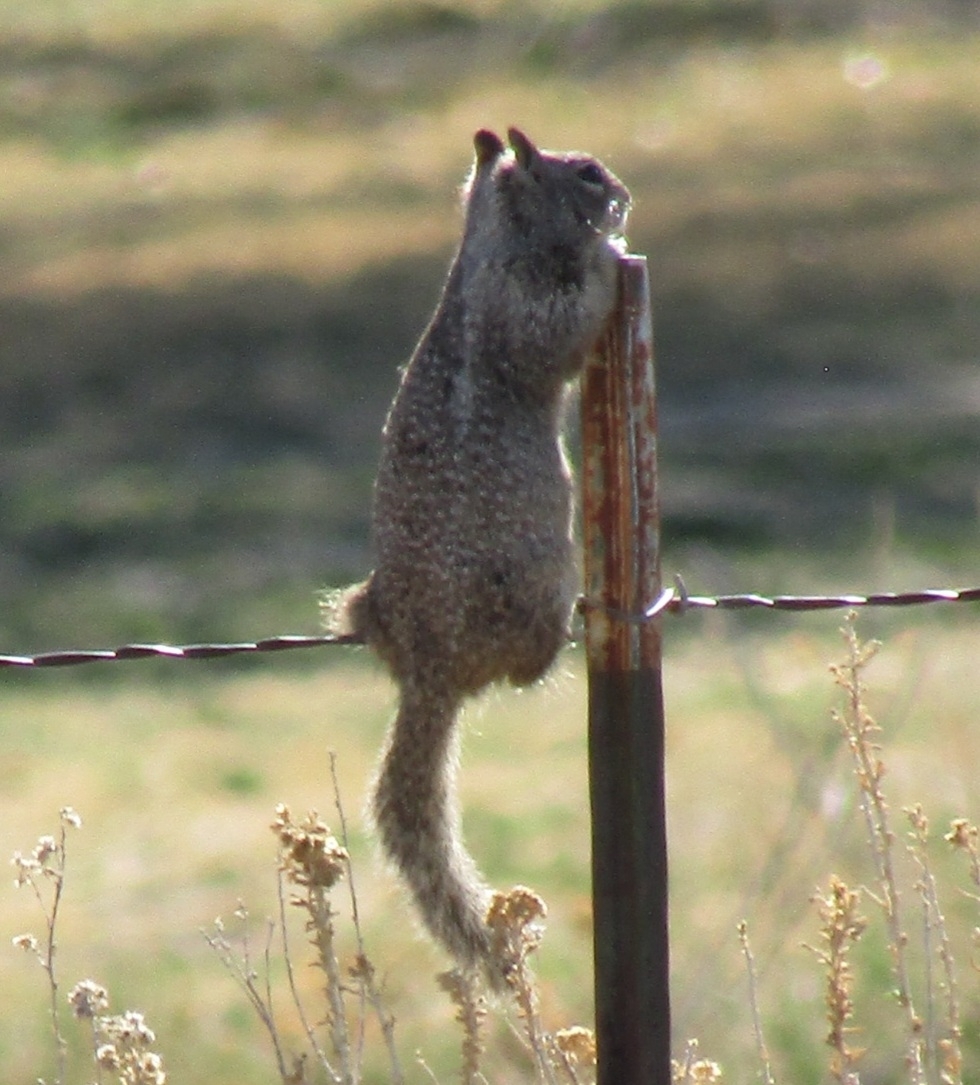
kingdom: Animalia
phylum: Chordata
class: Mammalia
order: Rodentia
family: Sciuridae
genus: Otospermophilus
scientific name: Otospermophilus beecheyi
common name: California ground squirrel
